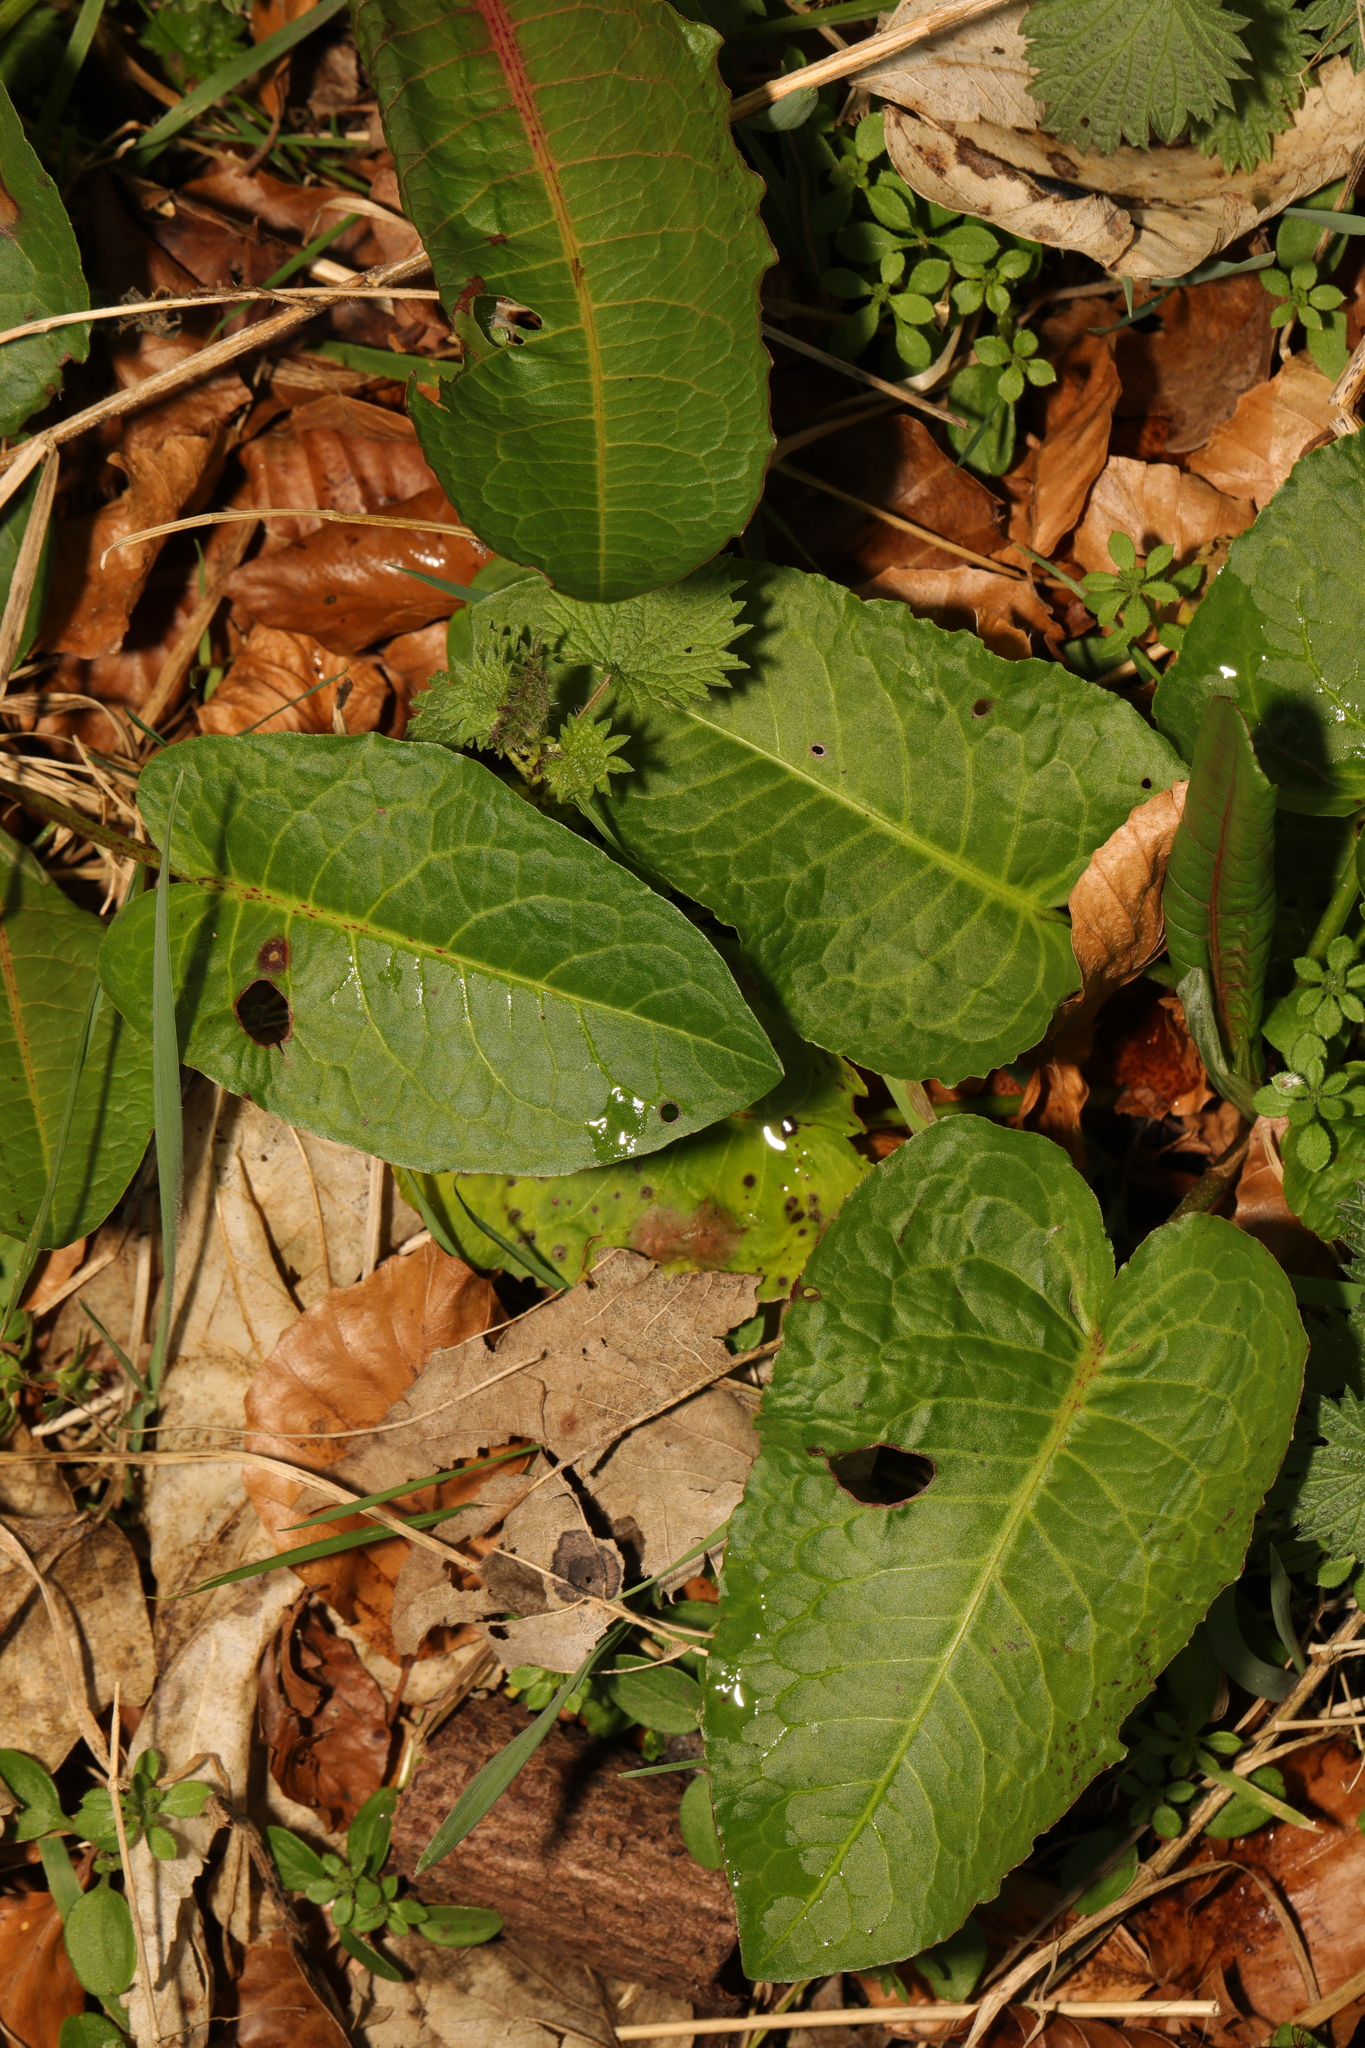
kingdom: Plantae
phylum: Tracheophyta
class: Magnoliopsida
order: Caryophyllales
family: Polygonaceae
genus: Rumex
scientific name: Rumex obtusifolius
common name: Bitter dock
